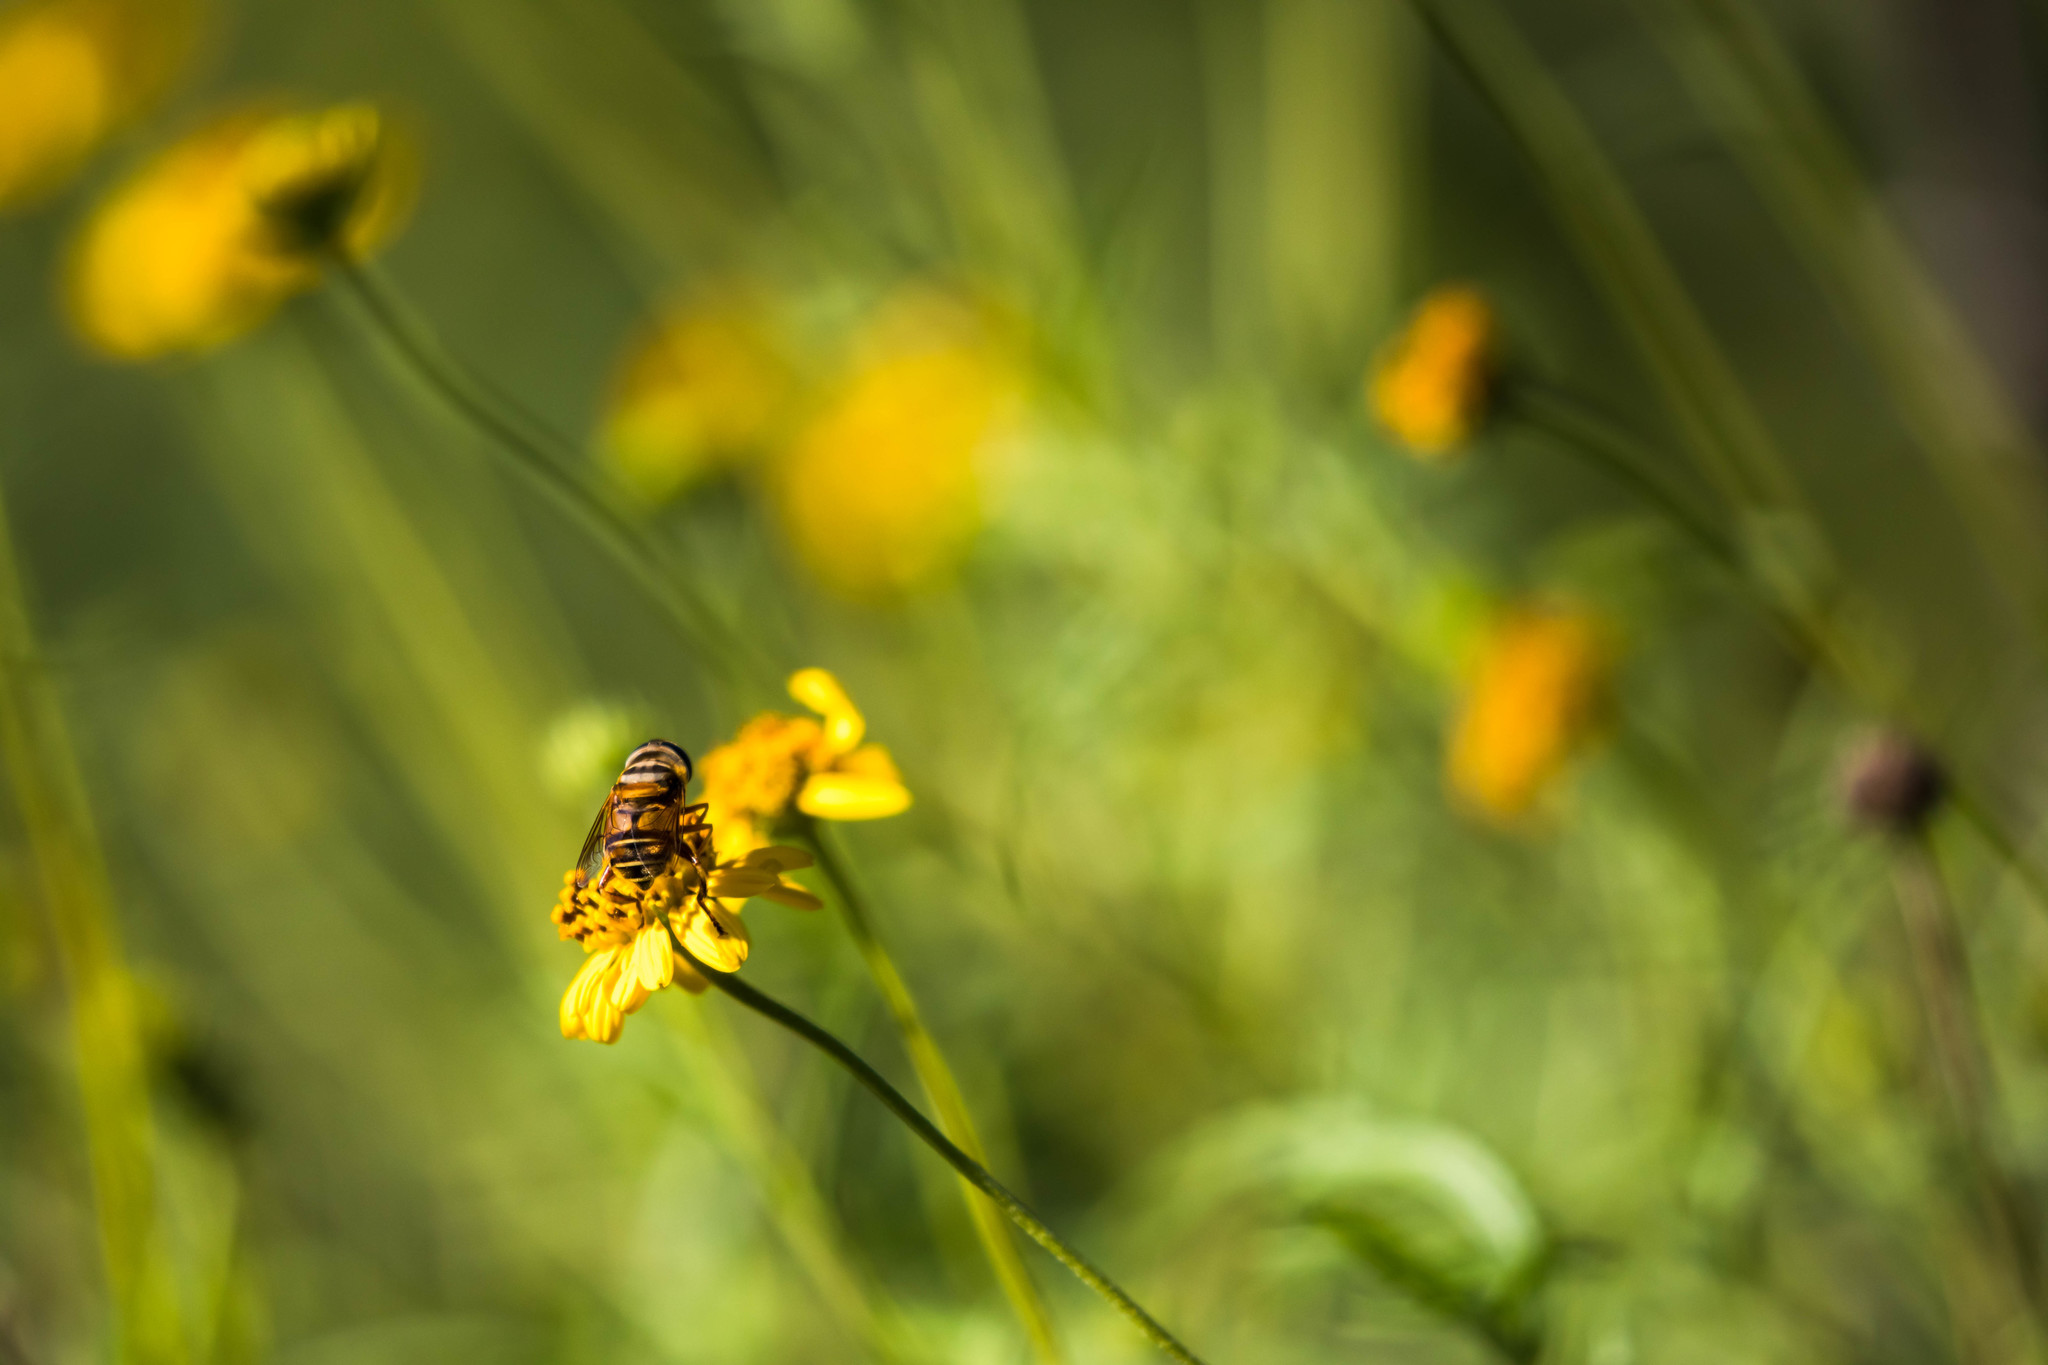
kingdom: Animalia
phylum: Arthropoda
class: Insecta
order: Diptera
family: Syrphidae
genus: Palpada
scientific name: Palpada vinetorum
